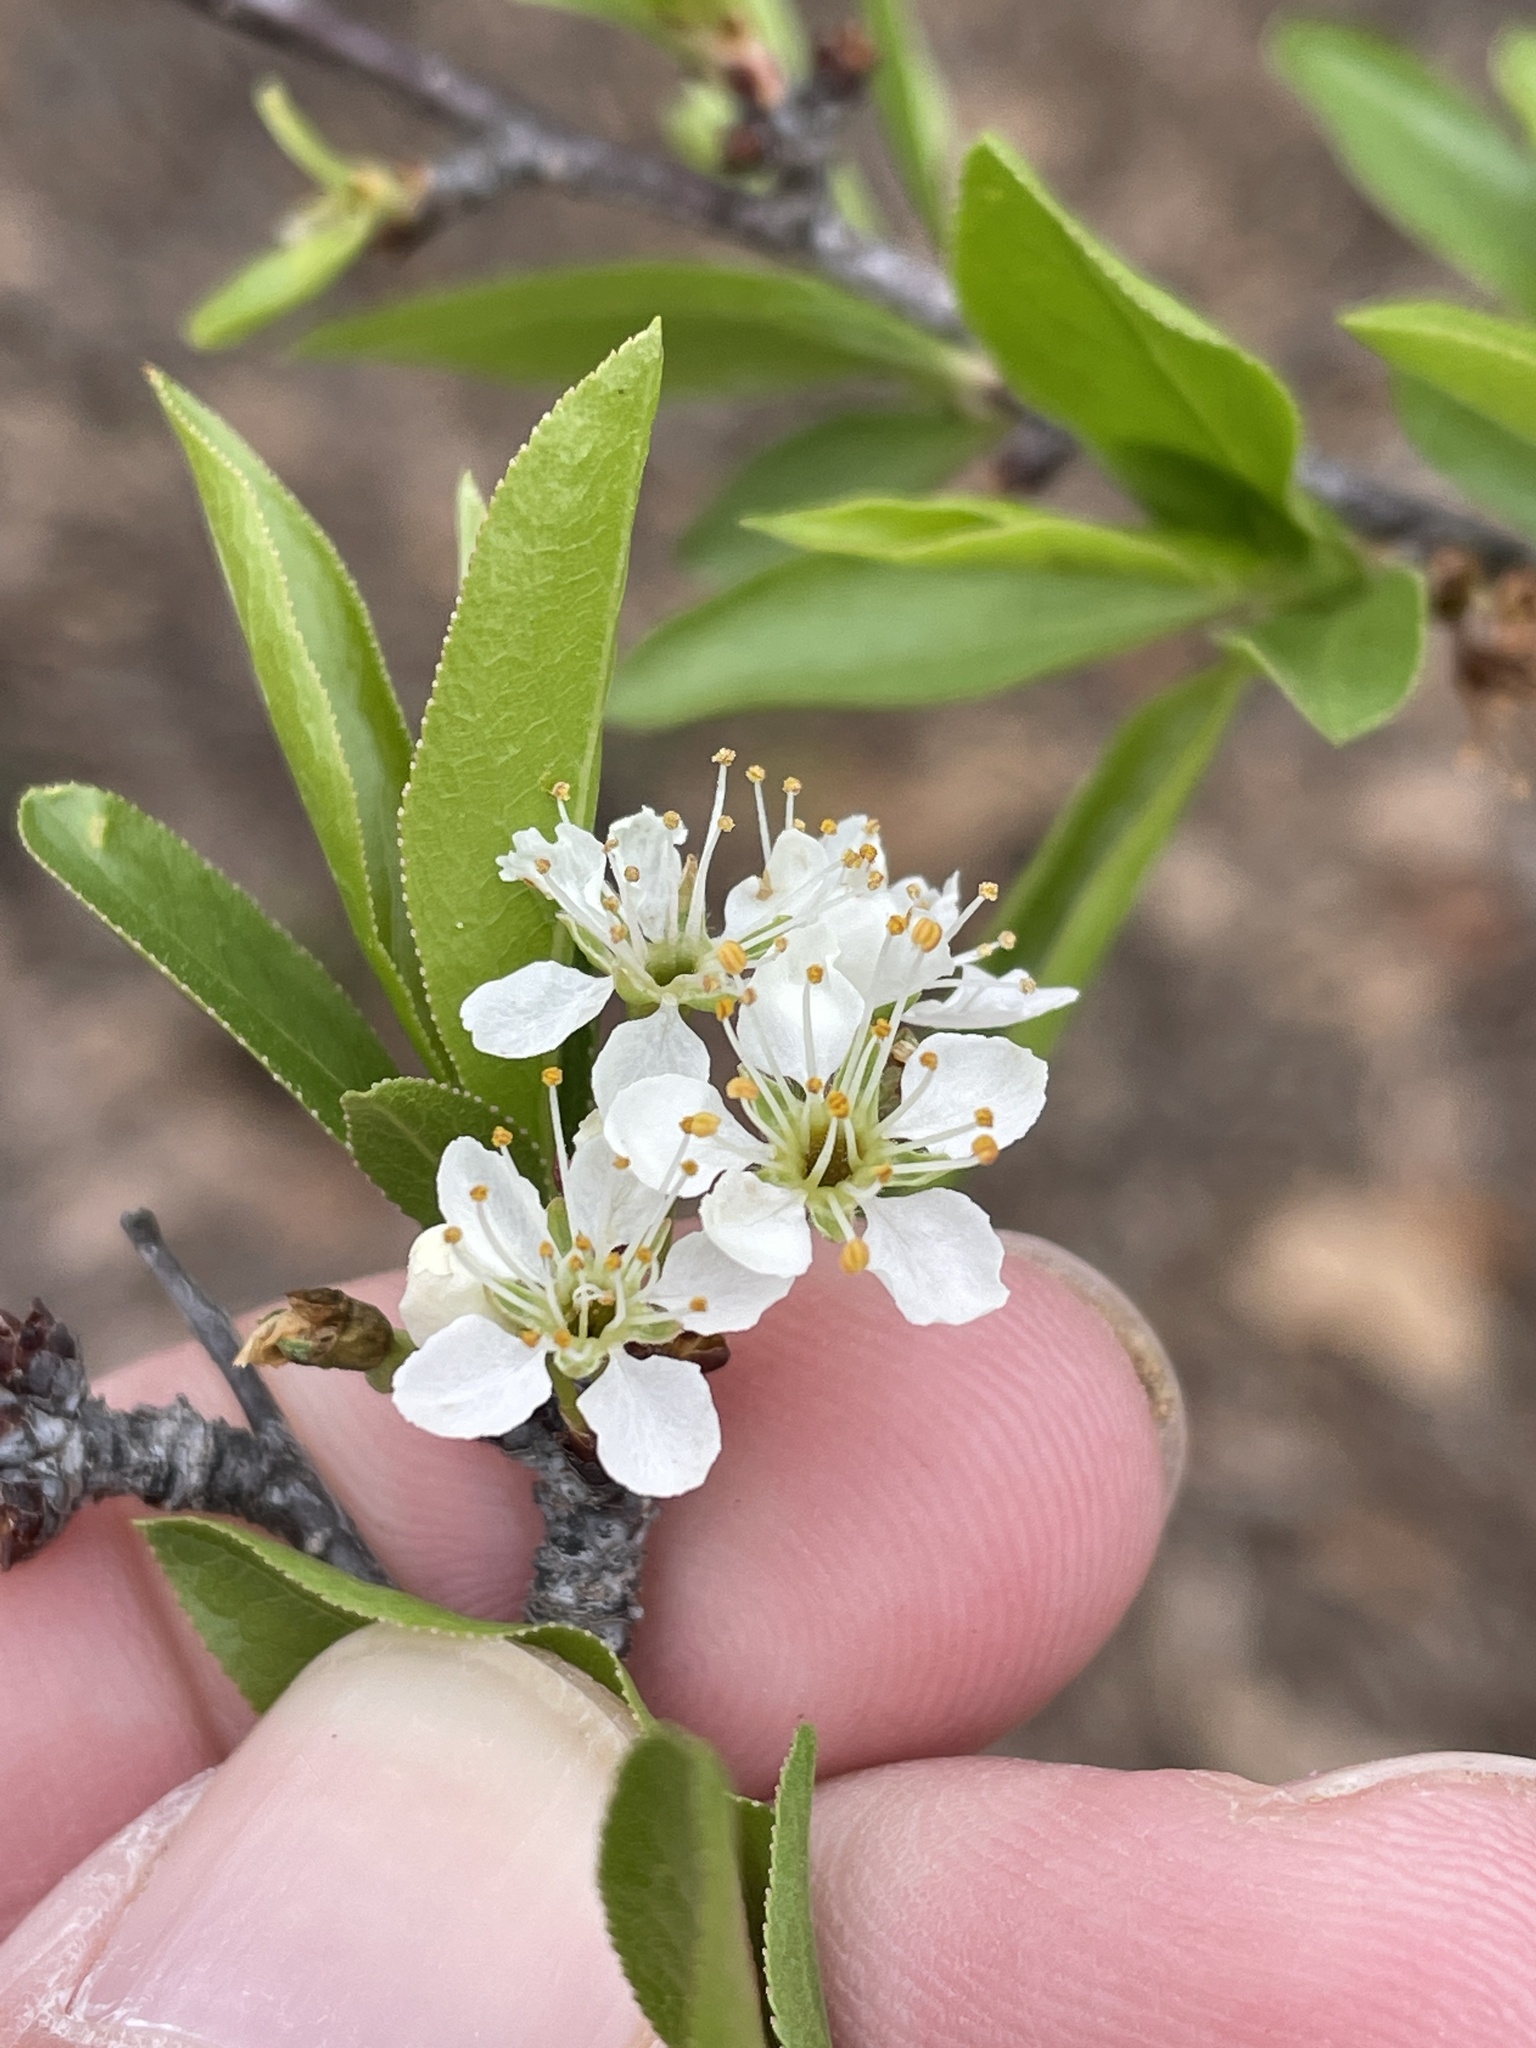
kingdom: Plantae
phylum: Tracheophyta
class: Magnoliopsida
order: Rosales
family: Rosaceae
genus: Prunus
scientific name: Prunus angustifolia
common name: Cherokee plum
